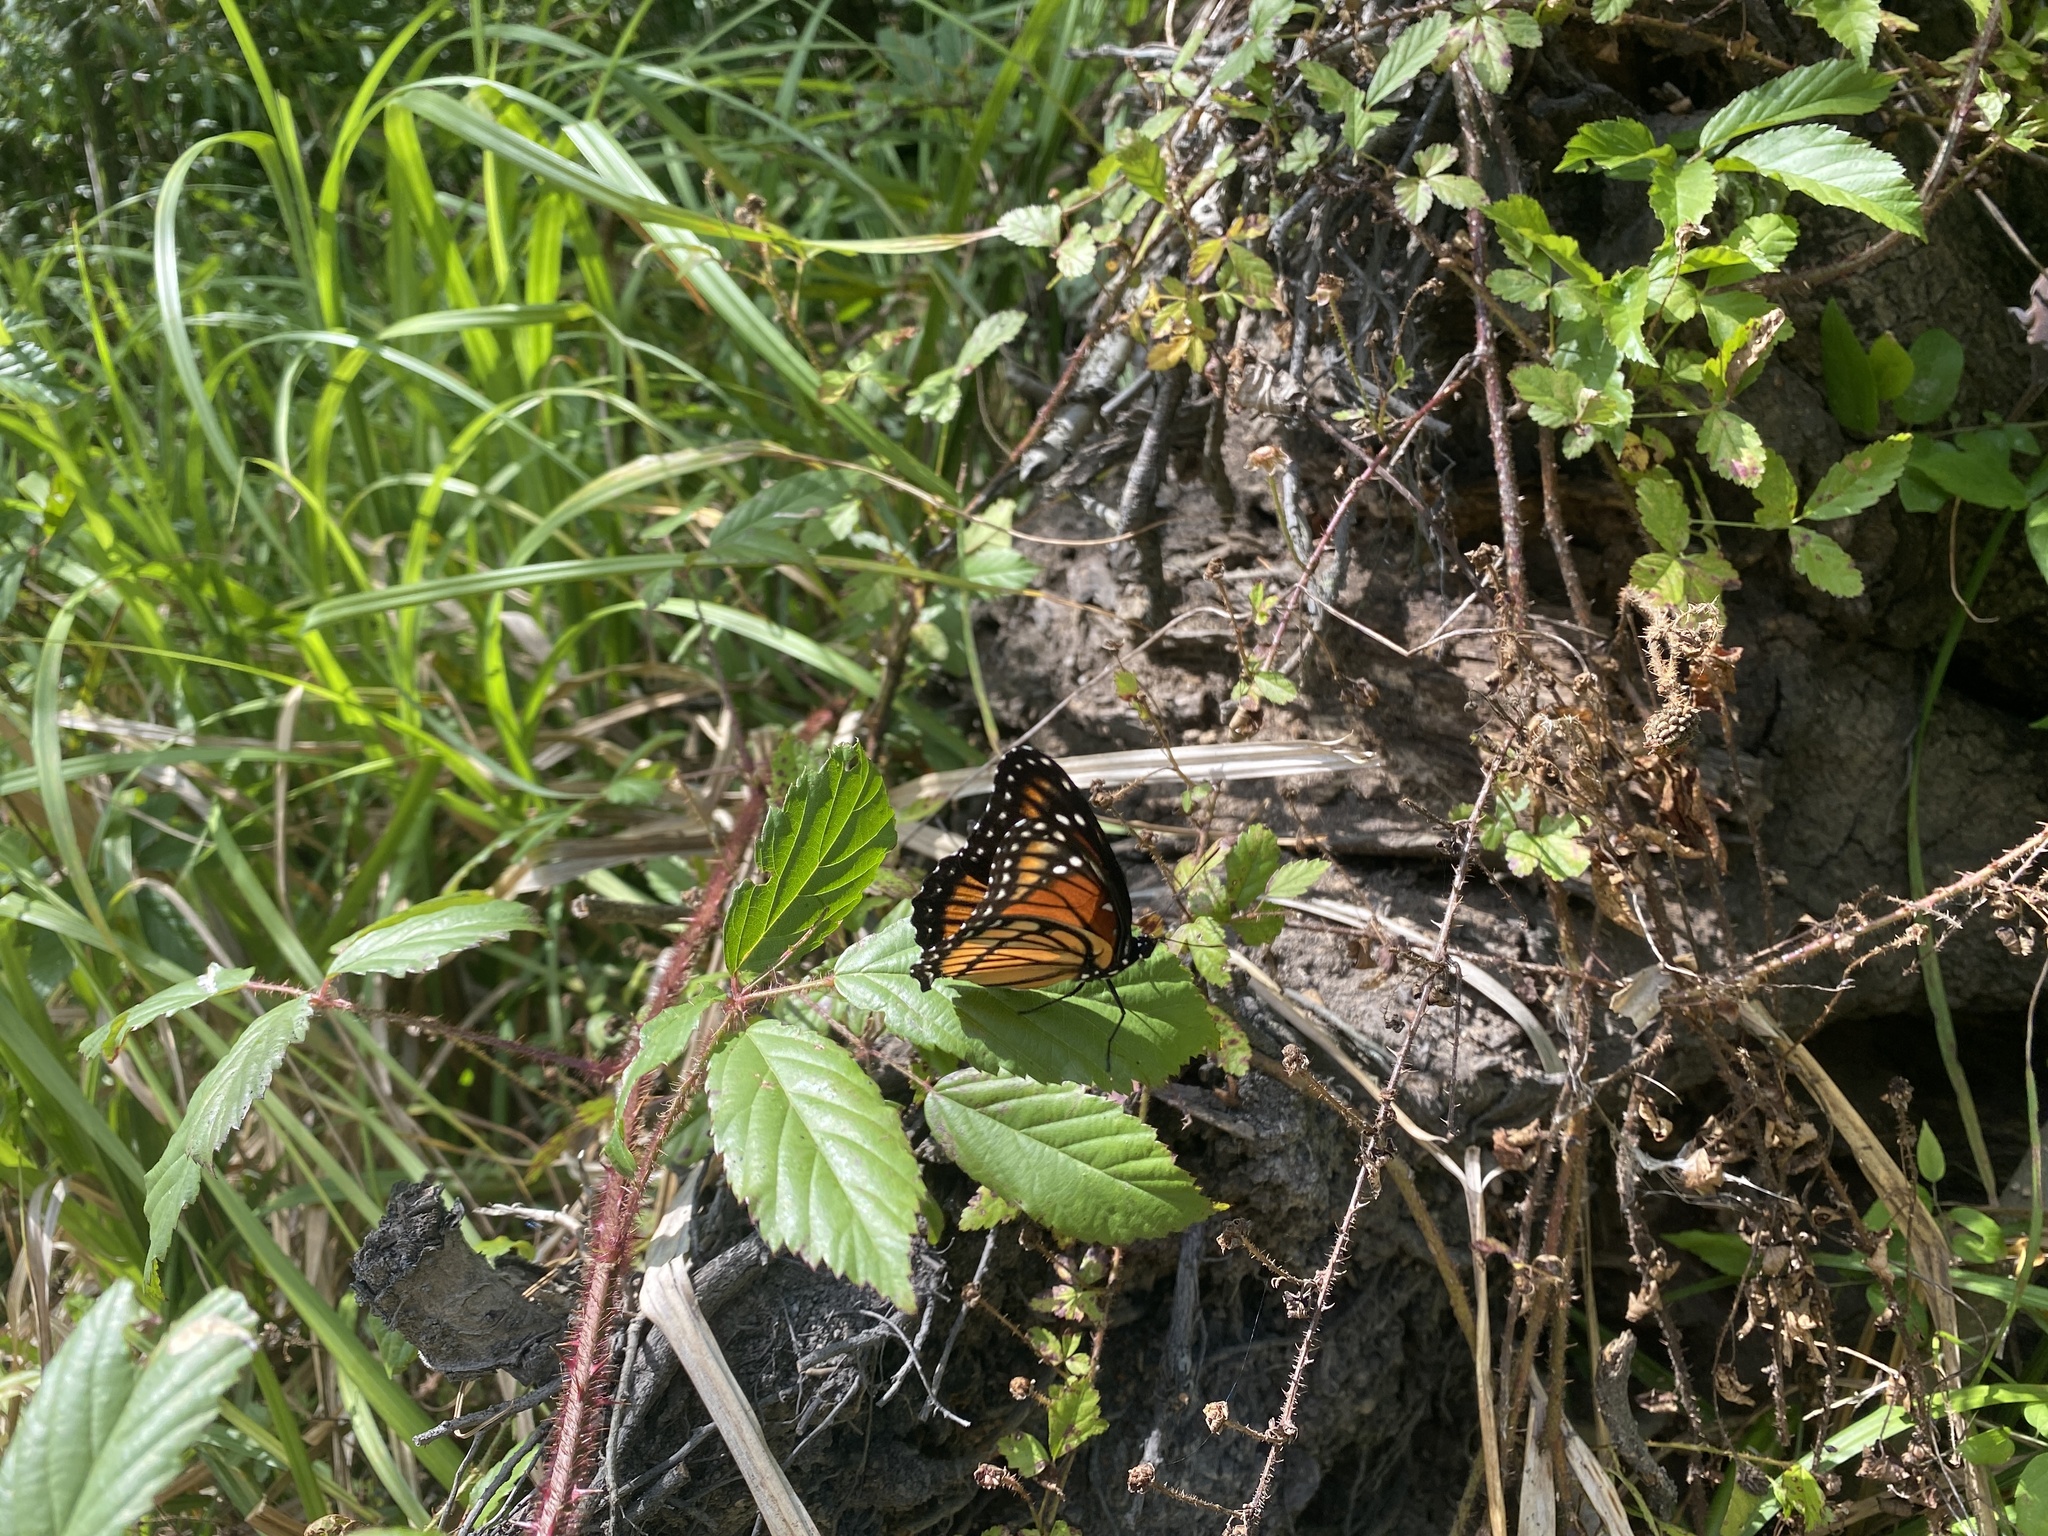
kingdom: Animalia
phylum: Arthropoda
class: Insecta
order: Lepidoptera
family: Nymphalidae
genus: Limenitis
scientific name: Limenitis archippus
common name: Viceroy
